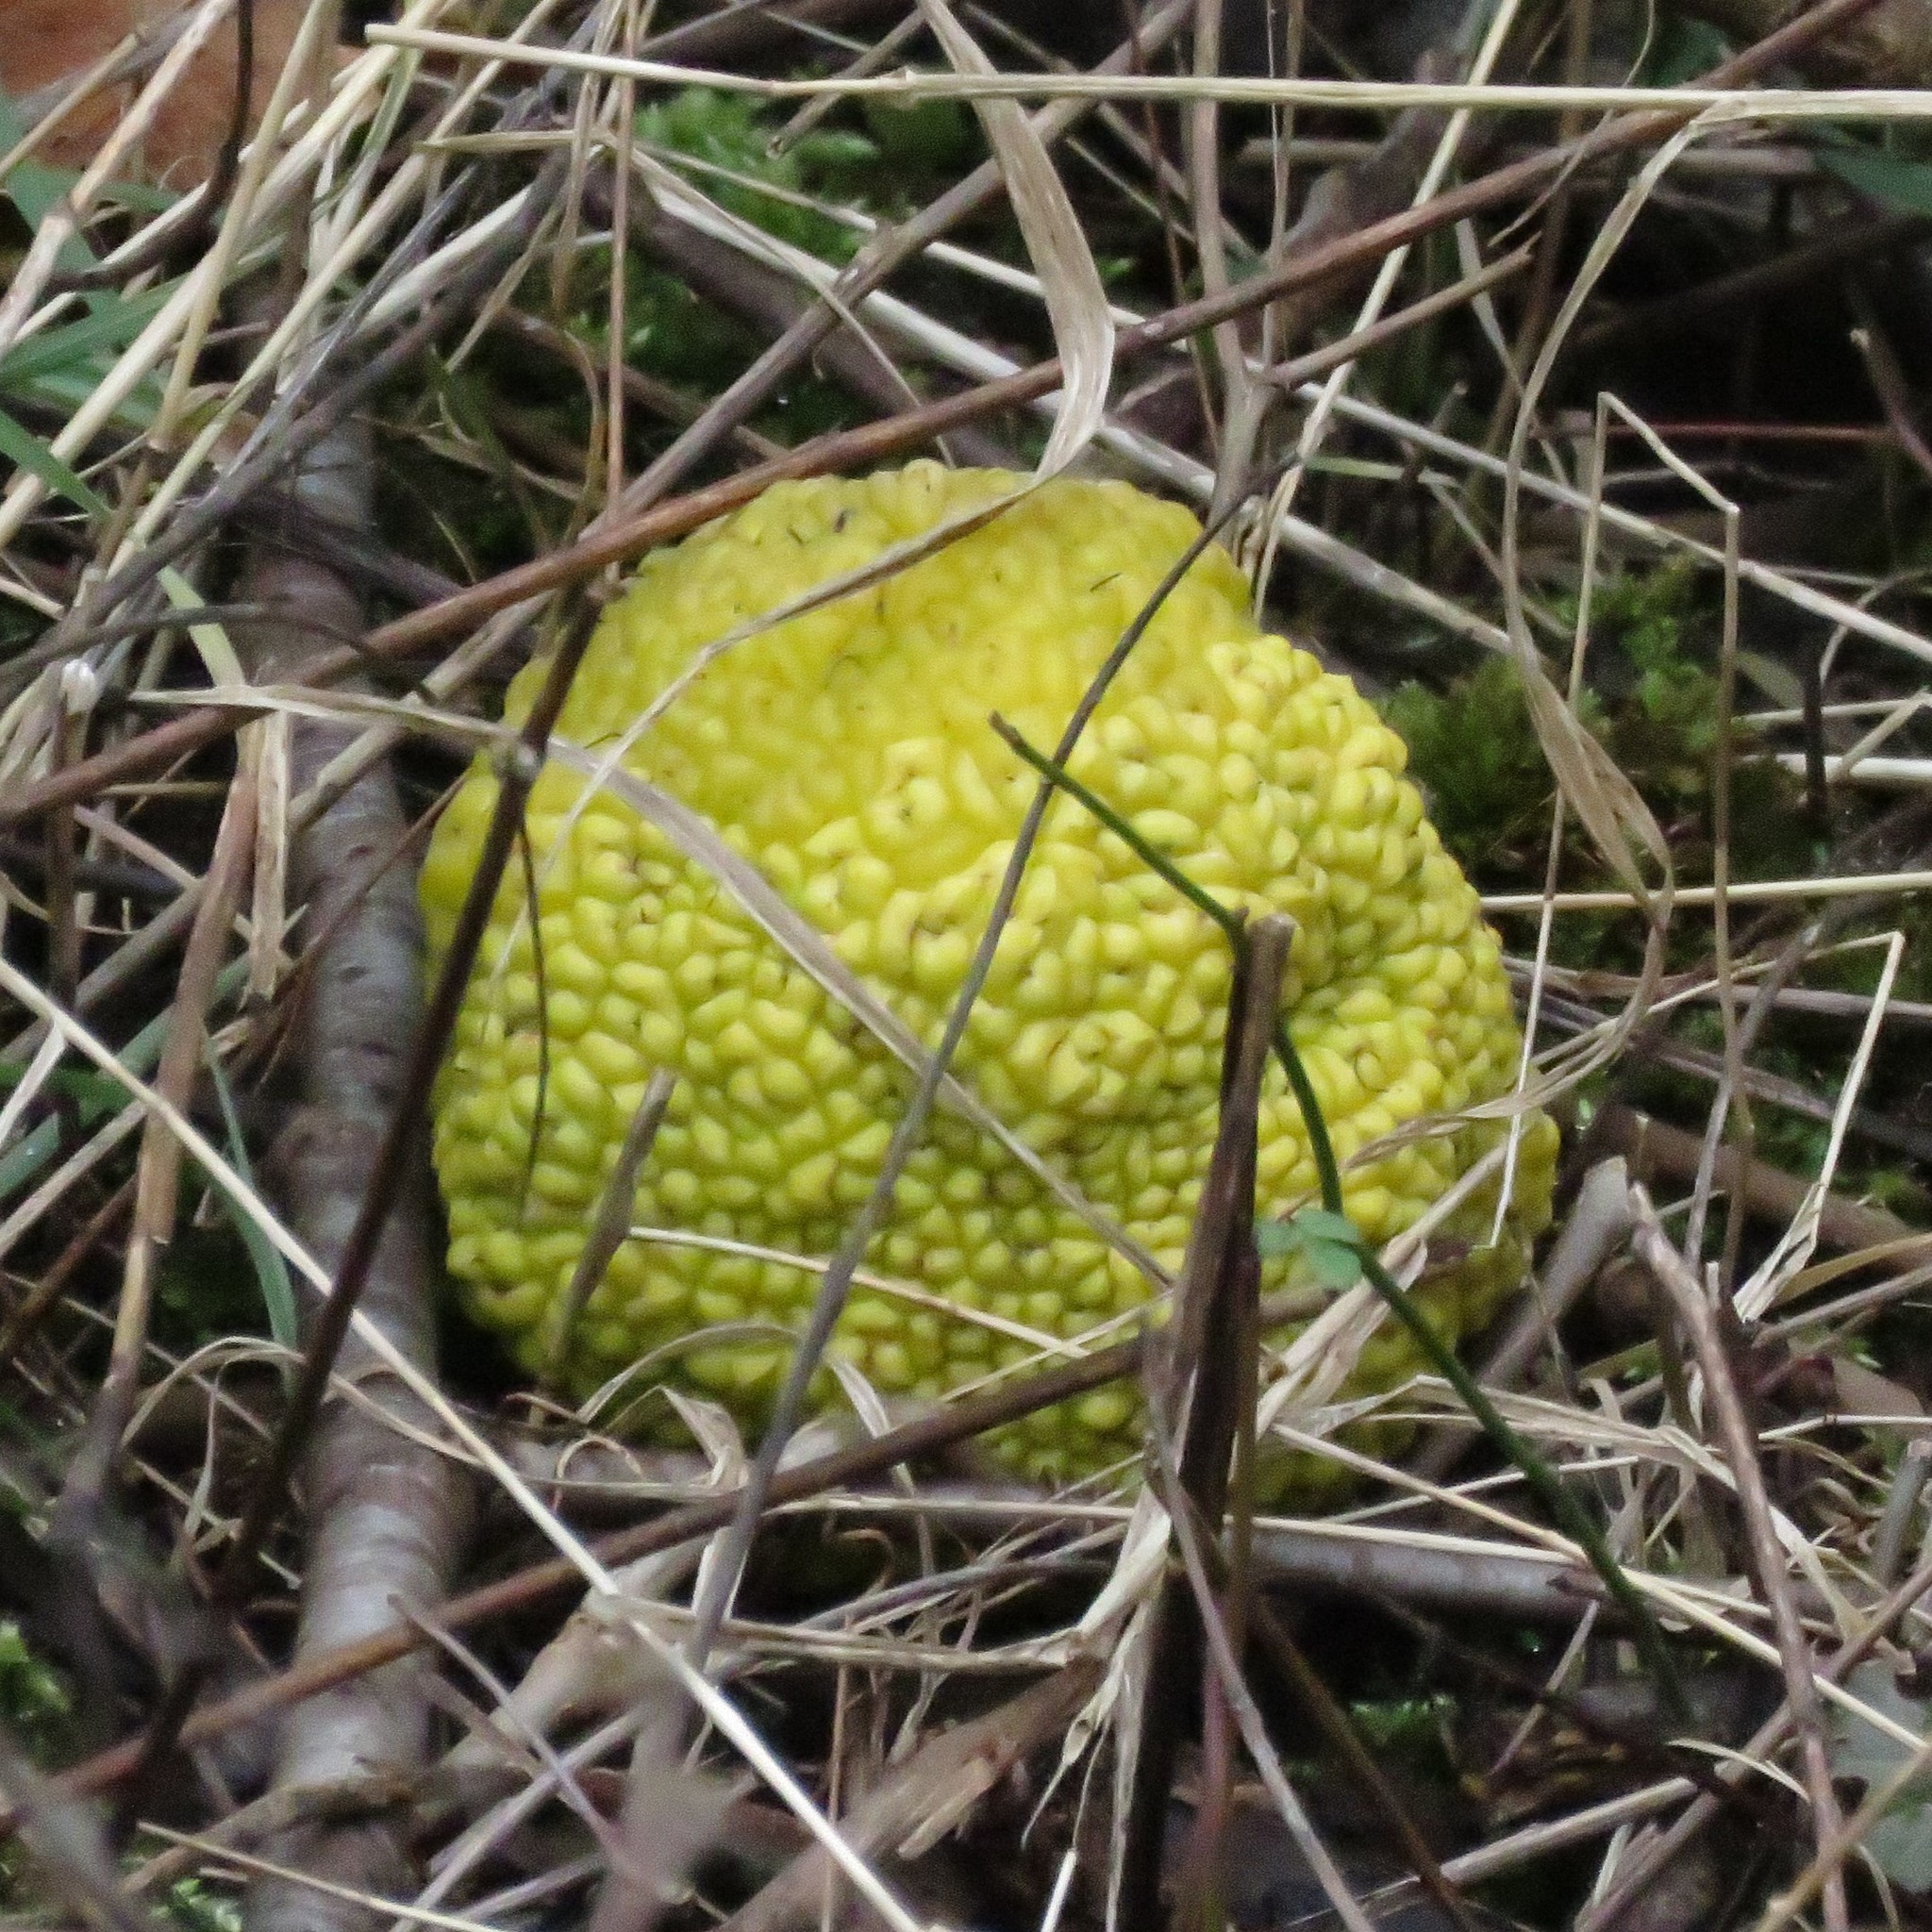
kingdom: Plantae
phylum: Tracheophyta
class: Magnoliopsida
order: Rosales
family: Moraceae
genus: Maclura
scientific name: Maclura pomifera
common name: Osage-orange
